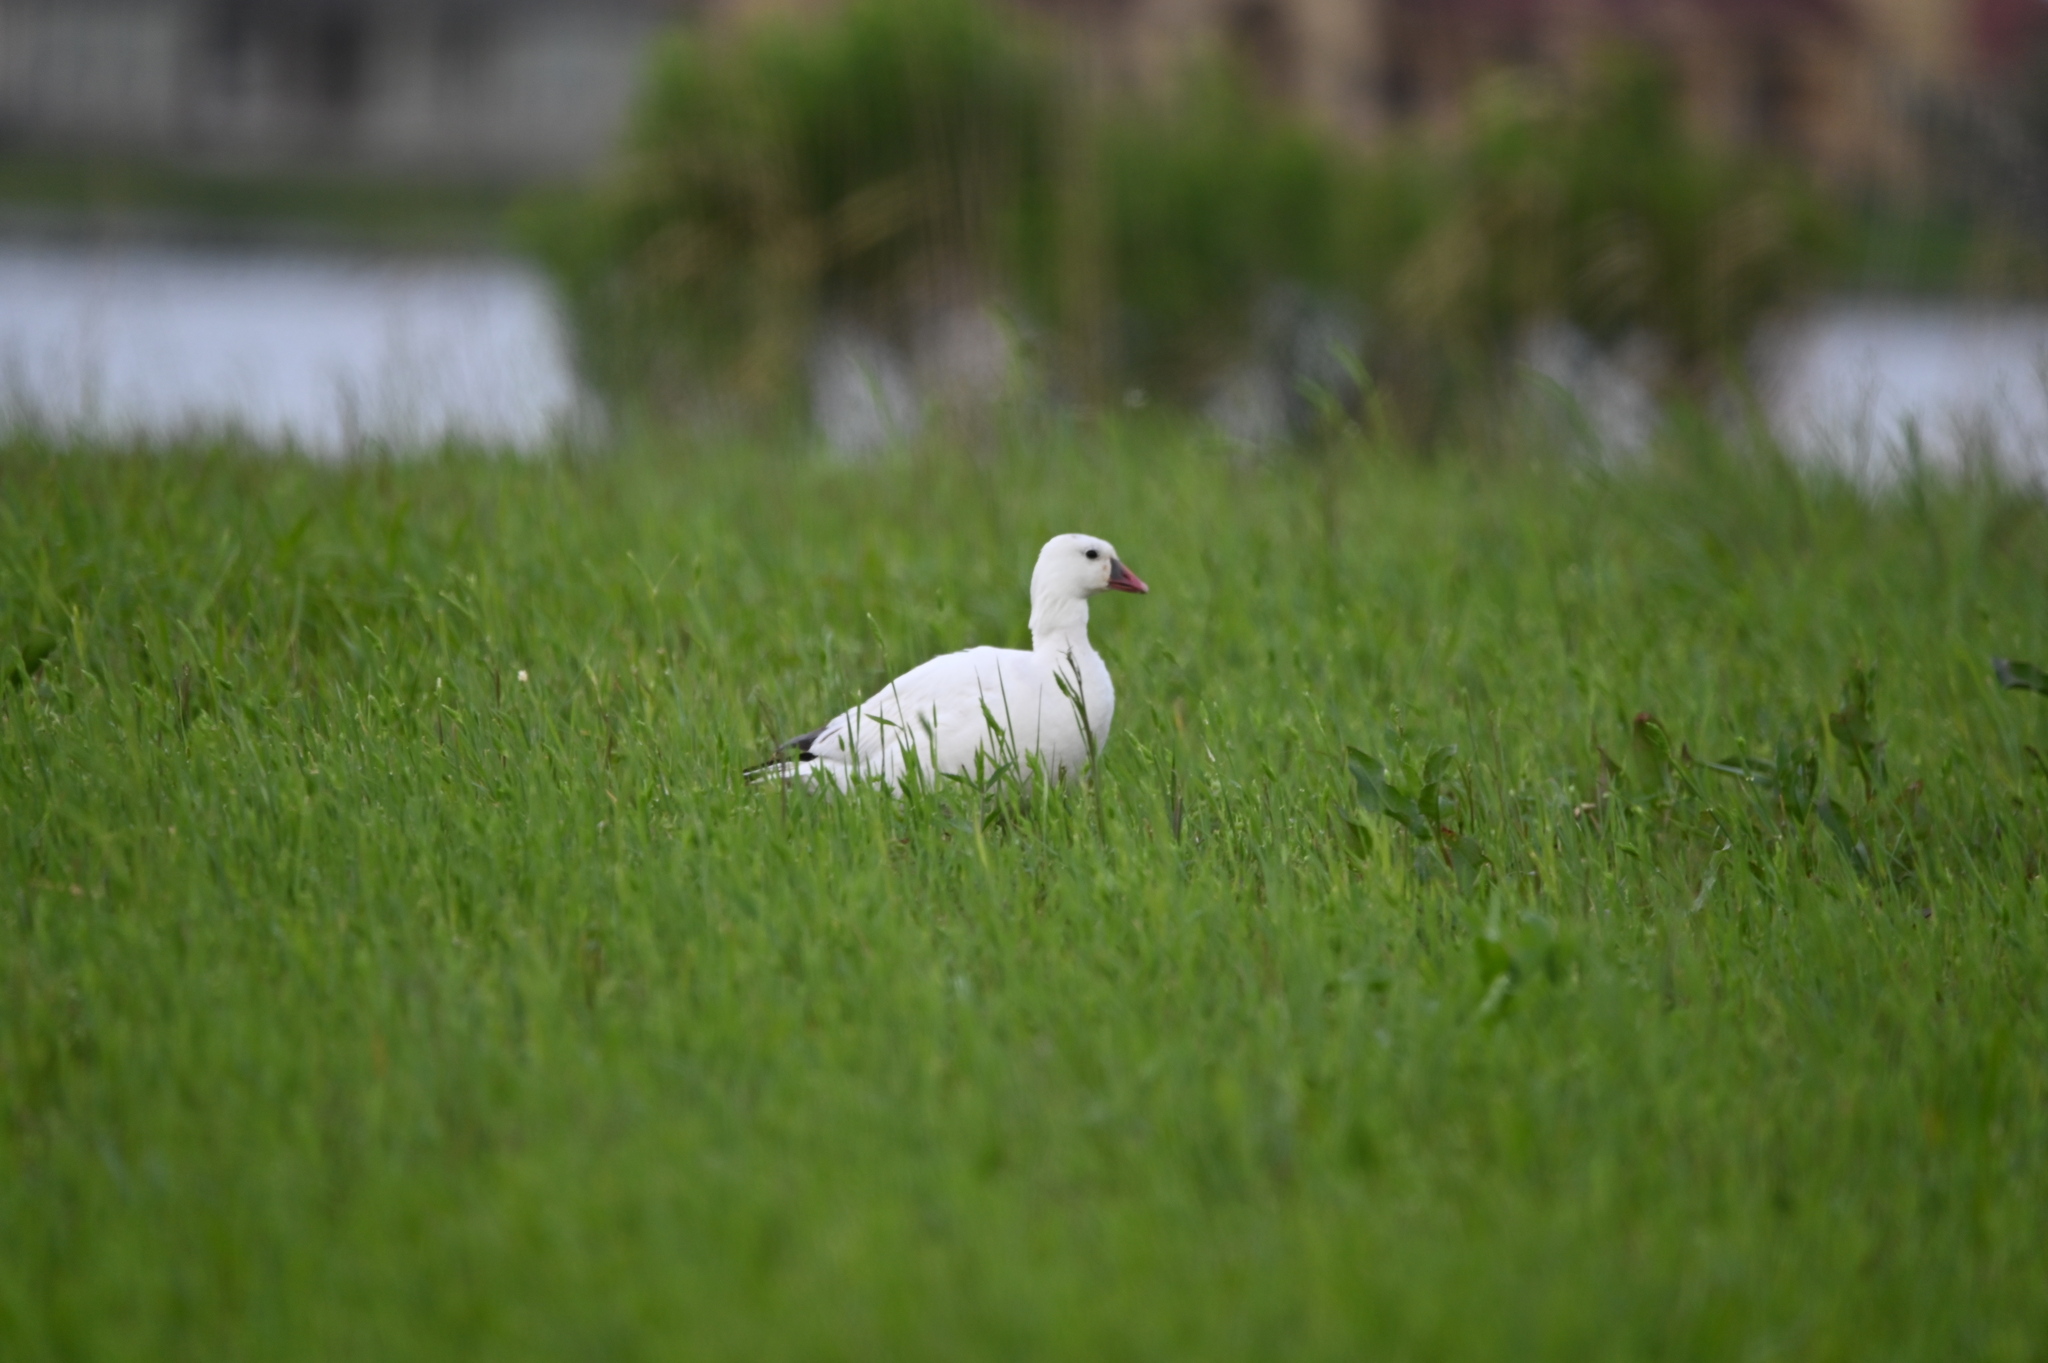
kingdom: Animalia
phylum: Chordata
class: Aves
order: Anseriformes
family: Anatidae
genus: Anser
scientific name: Anser rossii
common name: Ross's goose
